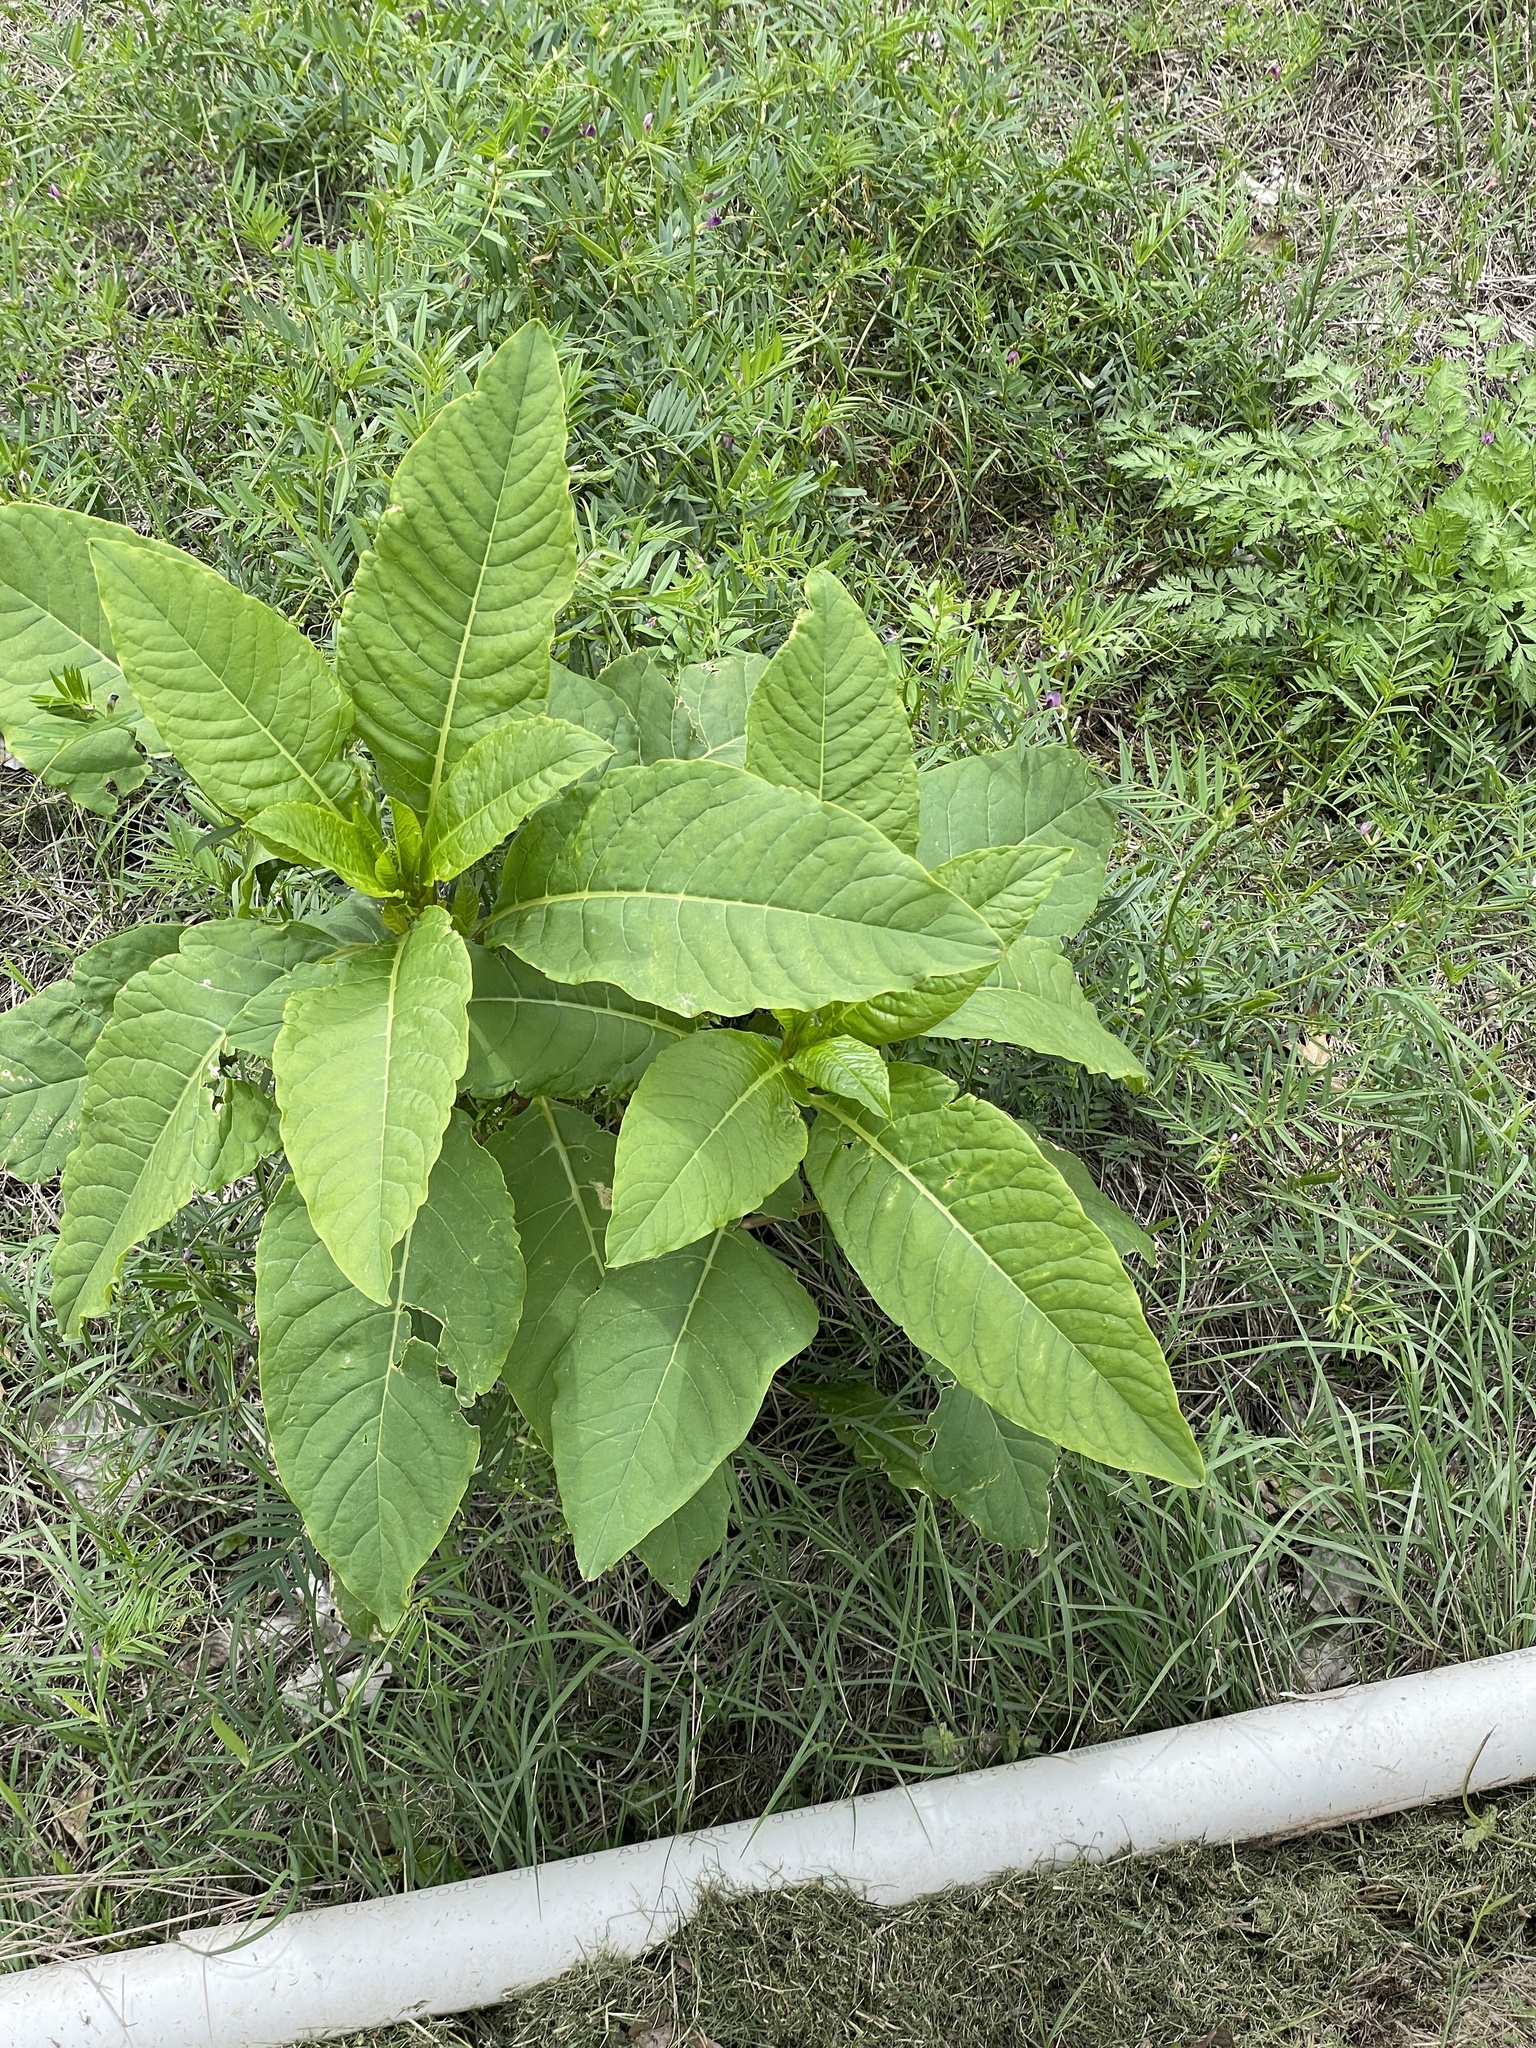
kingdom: Plantae
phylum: Tracheophyta
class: Magnoliopsida
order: Caryophyllales
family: Phytolaccaceae
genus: Phytolacca
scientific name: Phytolacca americana
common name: American pokeweed
